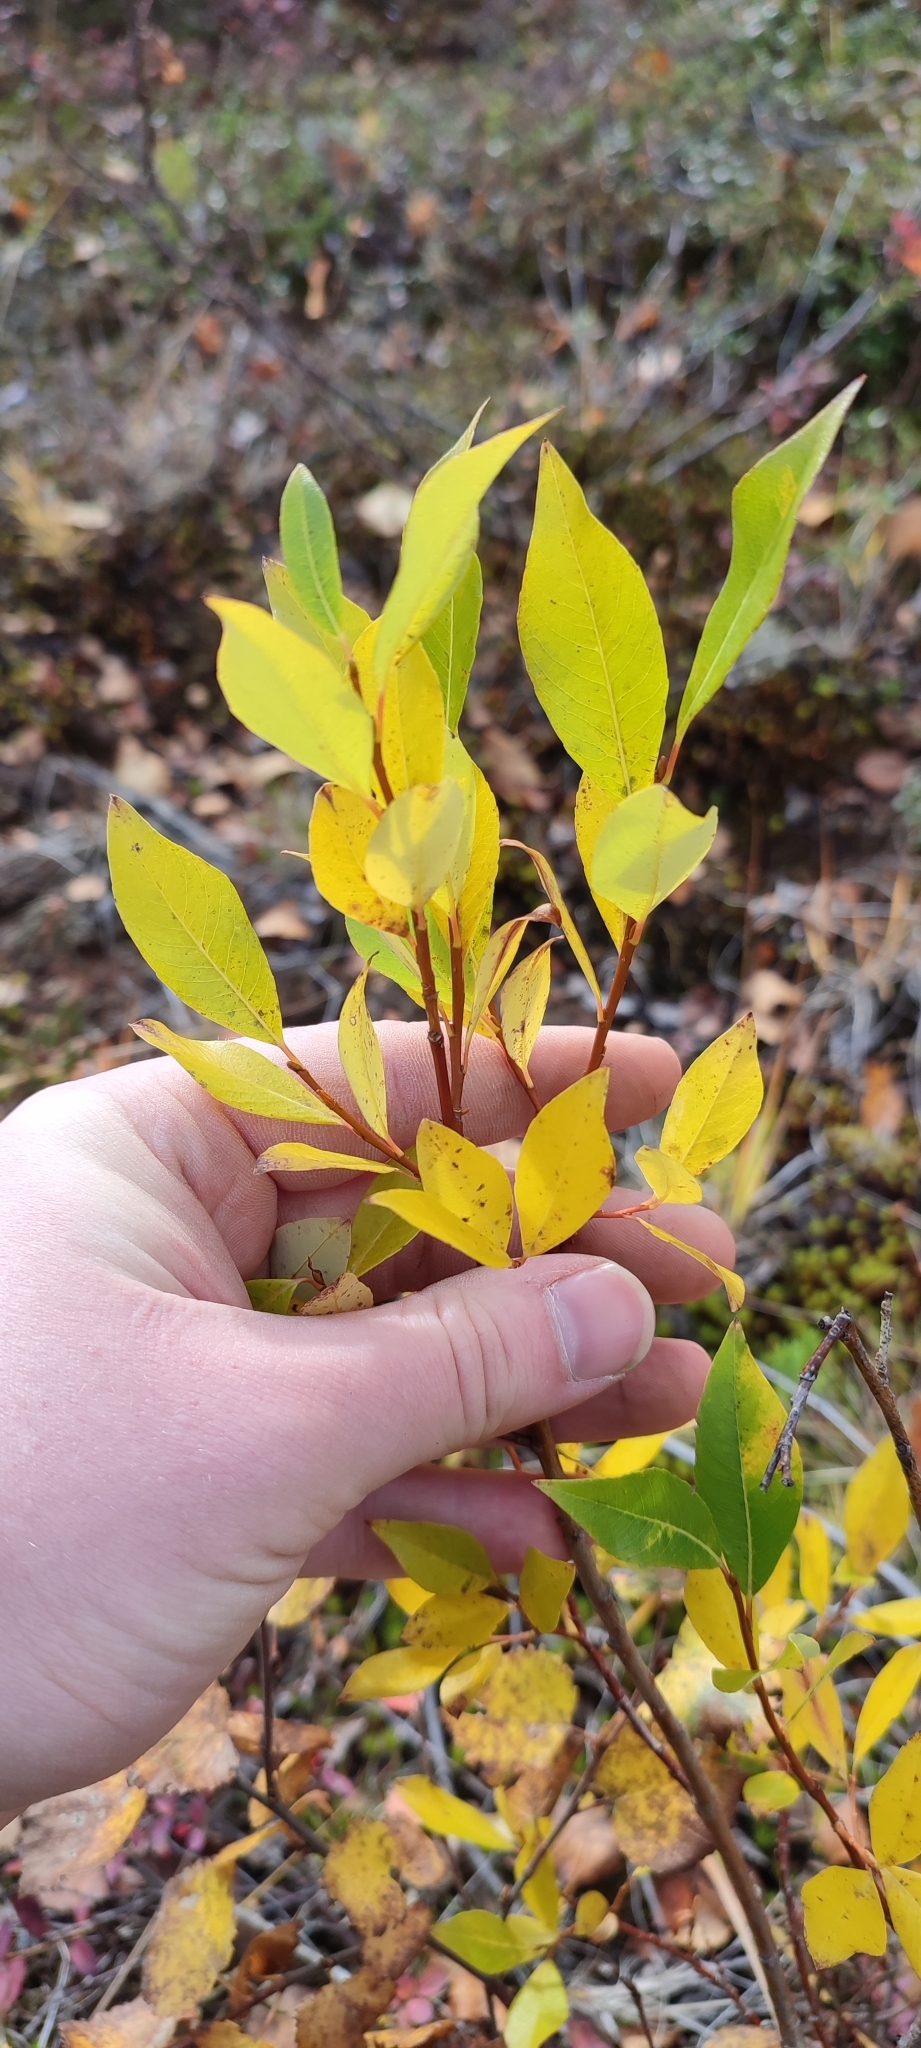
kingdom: Plantae
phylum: Tracheophyta
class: Magnoliopsida
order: Malpighiales
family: Salicaceae
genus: Salix
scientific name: Salix phylicifolia
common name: Tea-leaved willow
